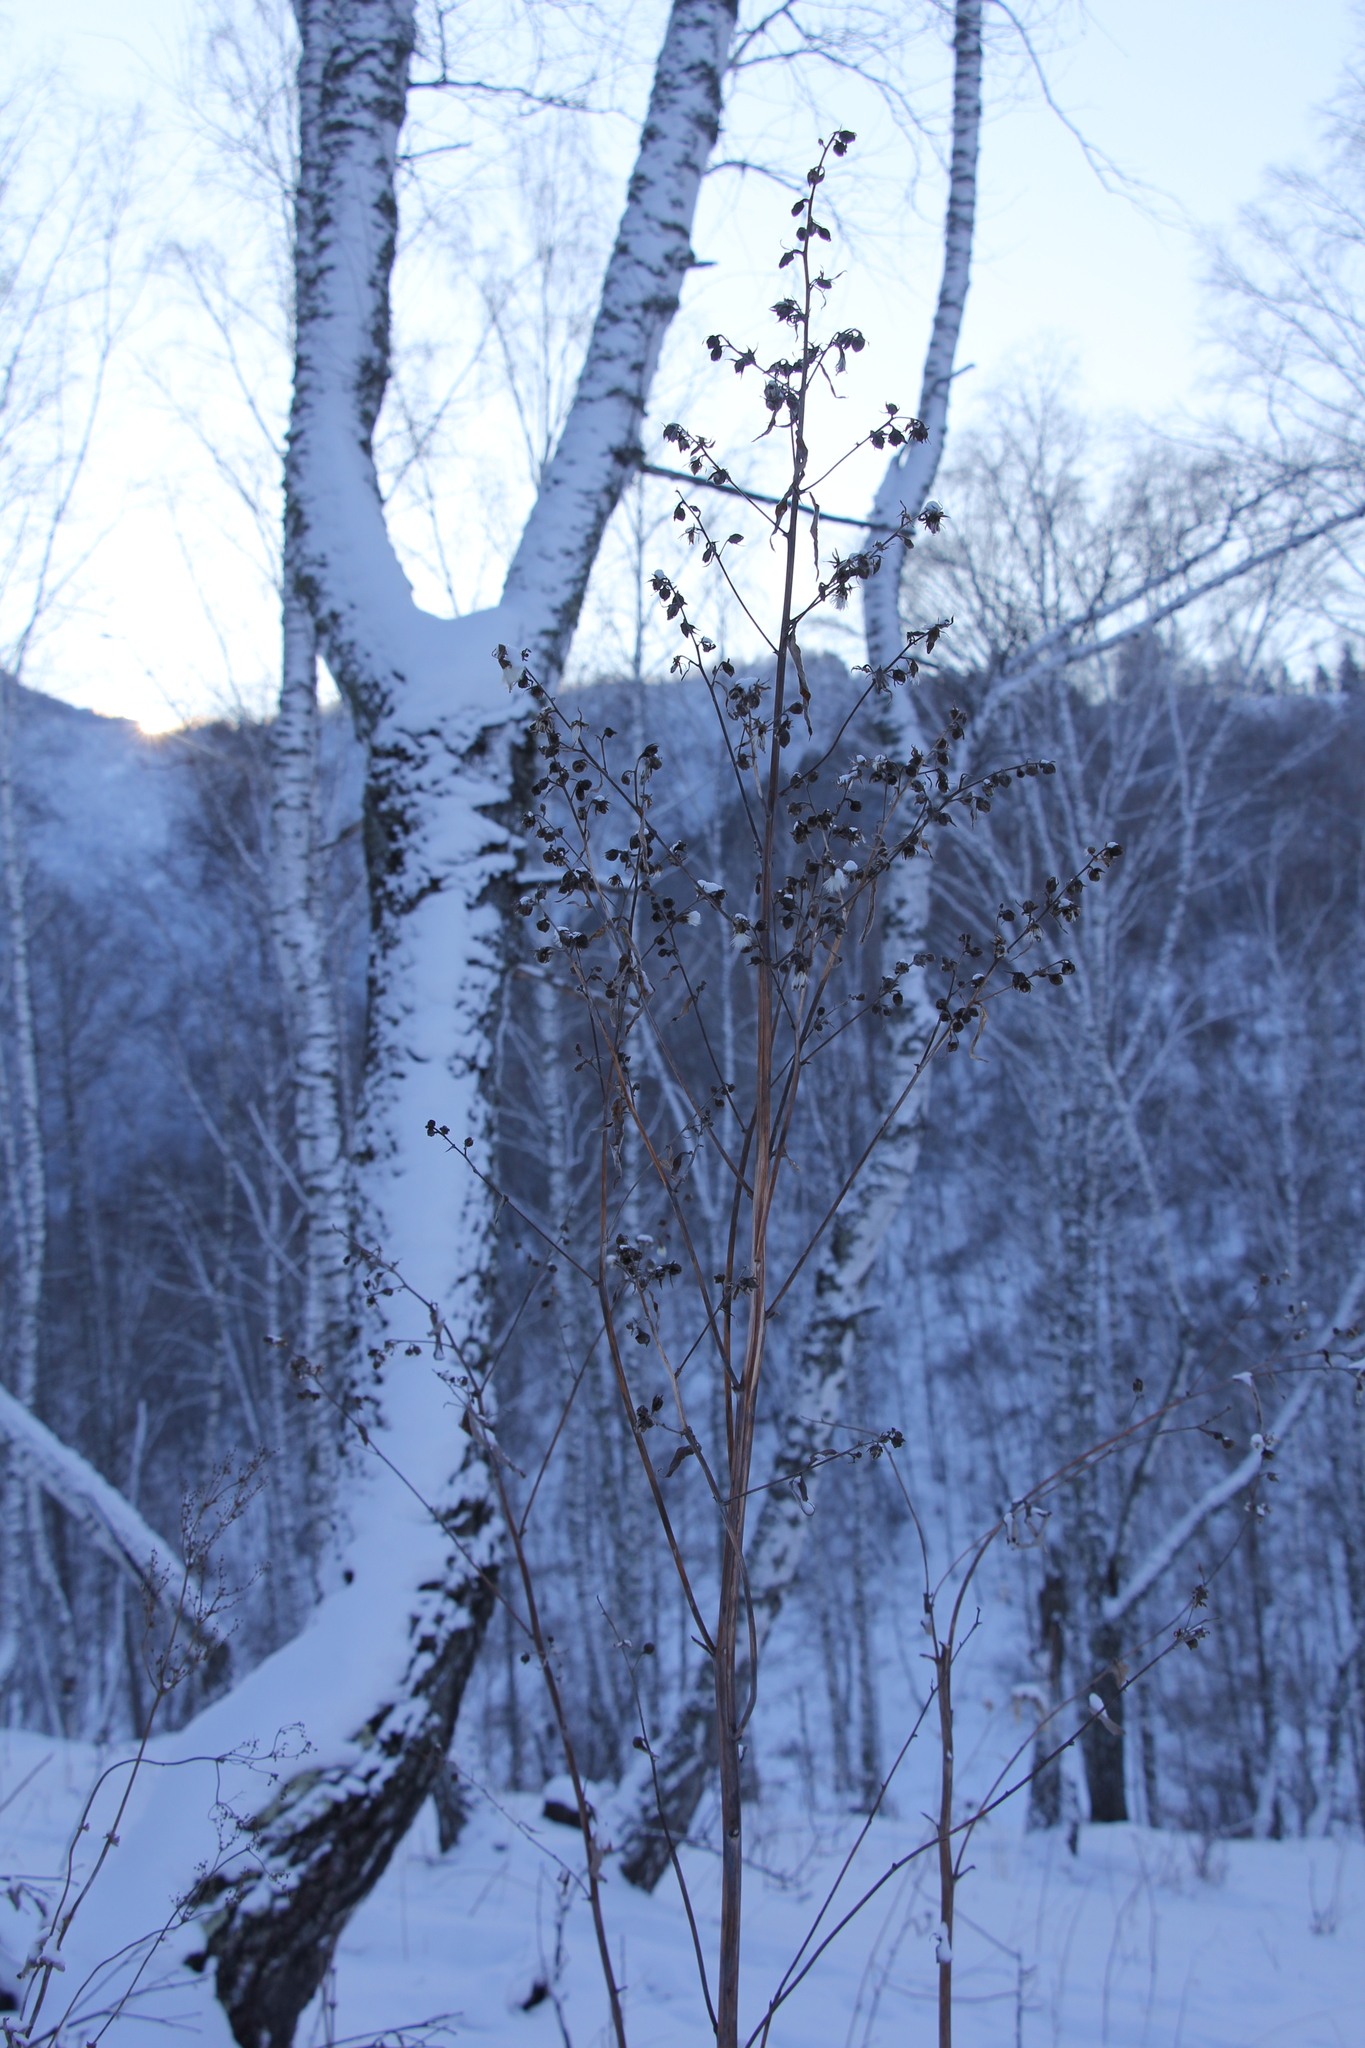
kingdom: Plantae
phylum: Tracheophyta
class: Magnoliopsida
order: Asterales
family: Asteraceae
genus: Parasenecio
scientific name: Parasenecio hastatus
